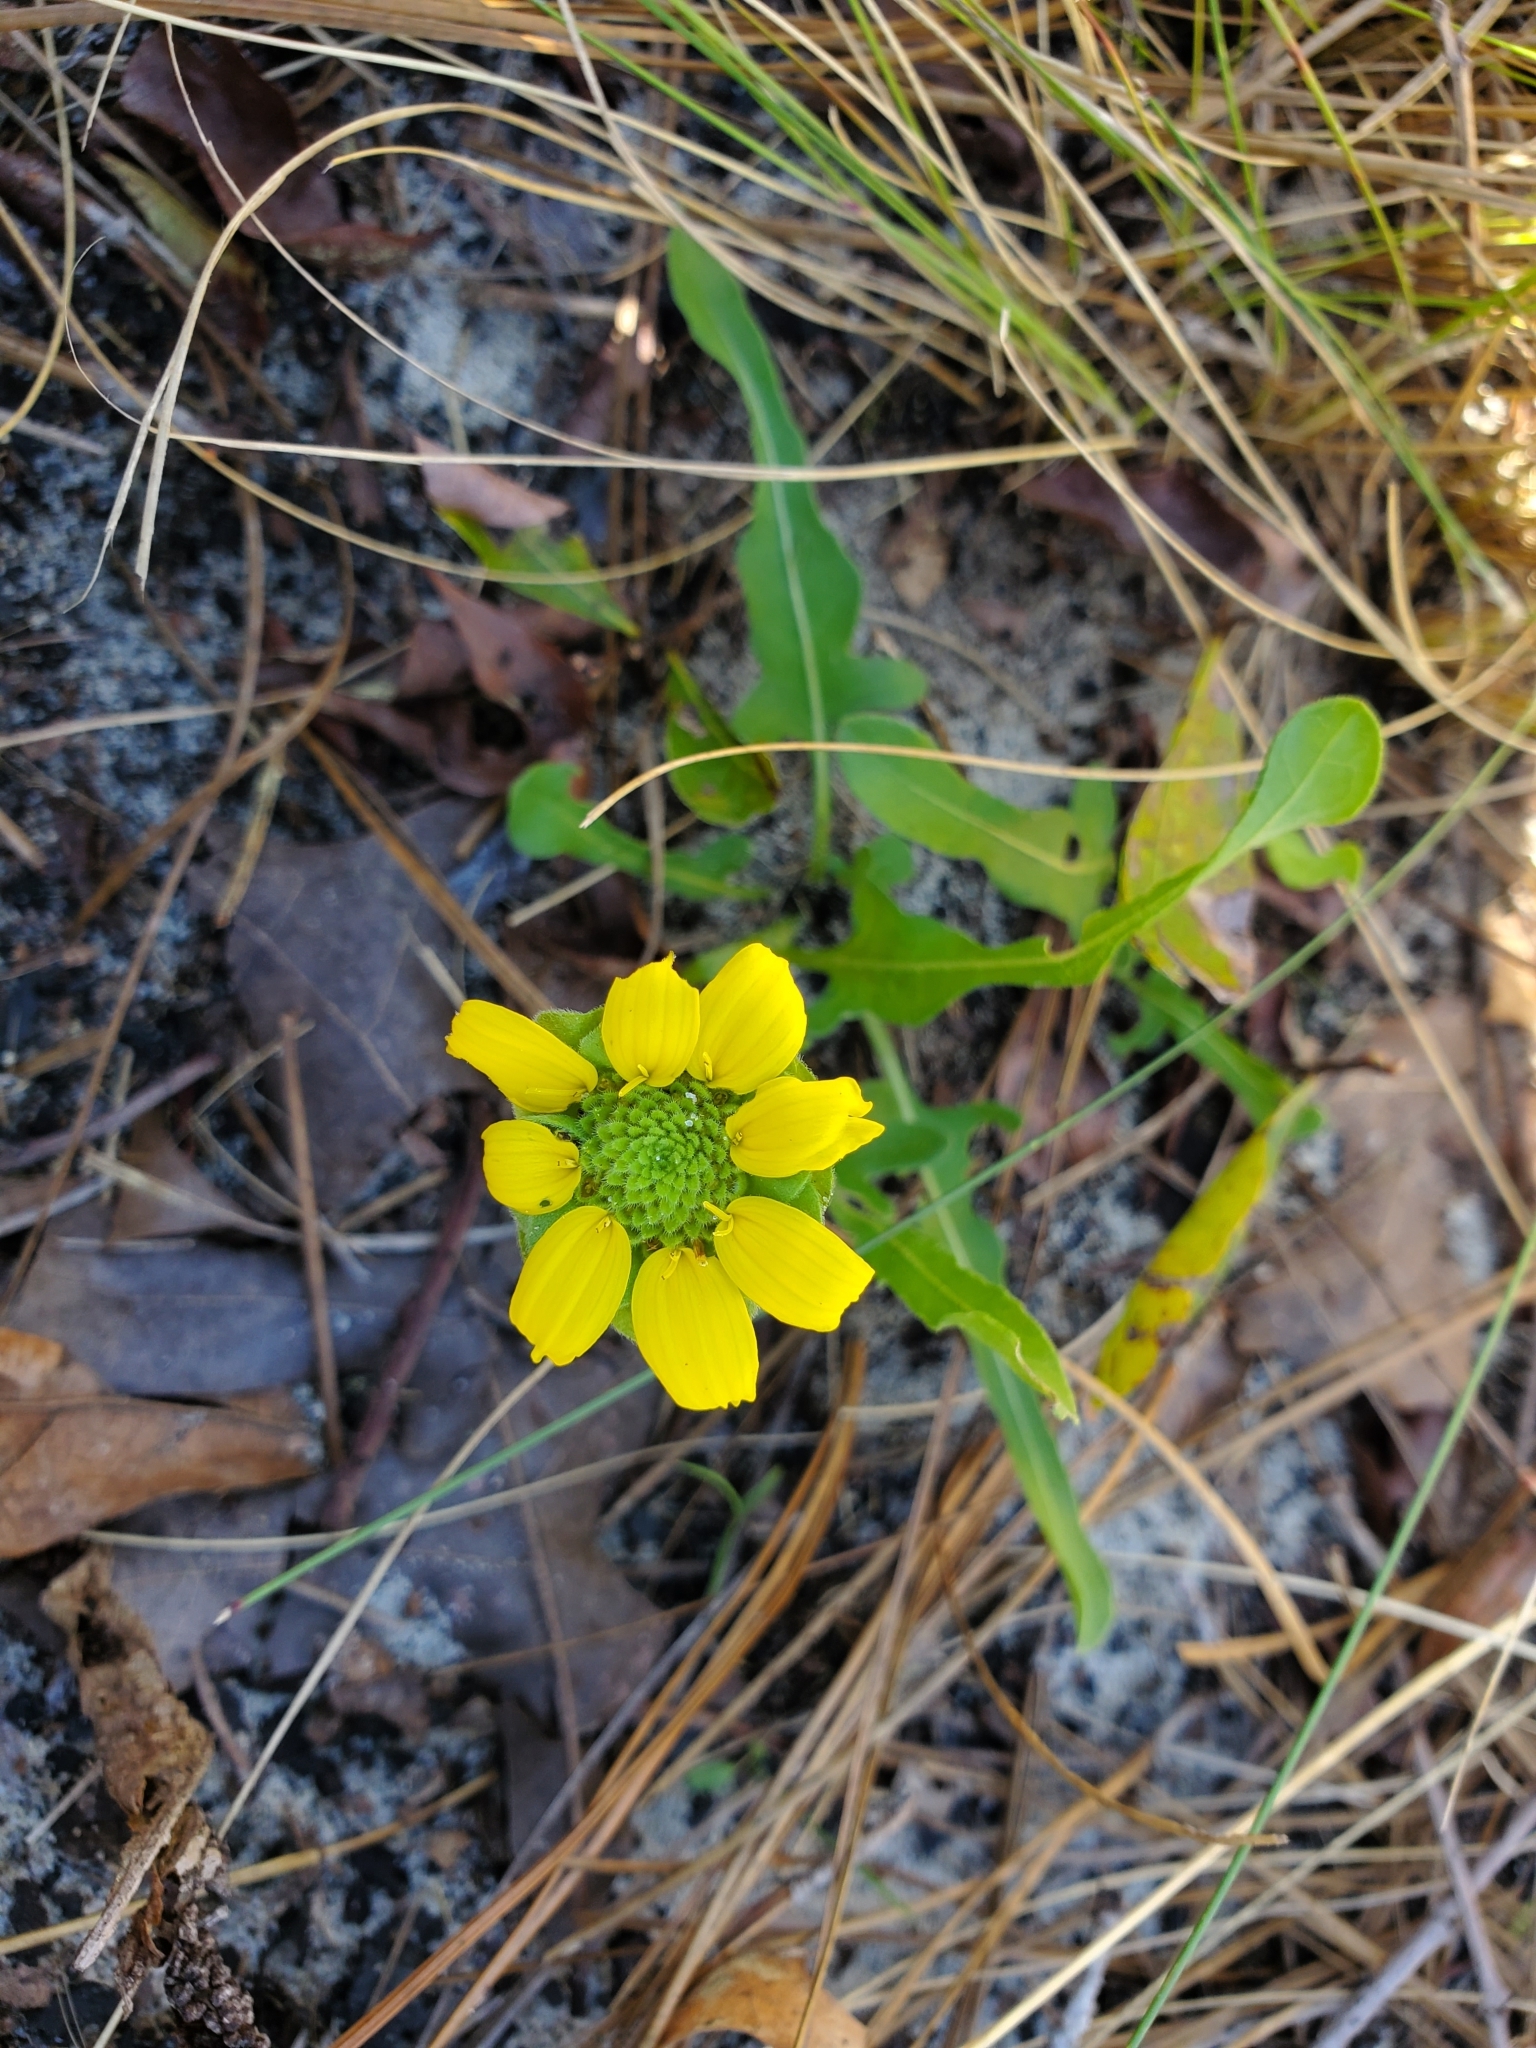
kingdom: Plantae
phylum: Tracheophyta
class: Magnoliopsida
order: Asterales
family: Asteraceae
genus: Berlandiera
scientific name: Berlandiera subacaulis
